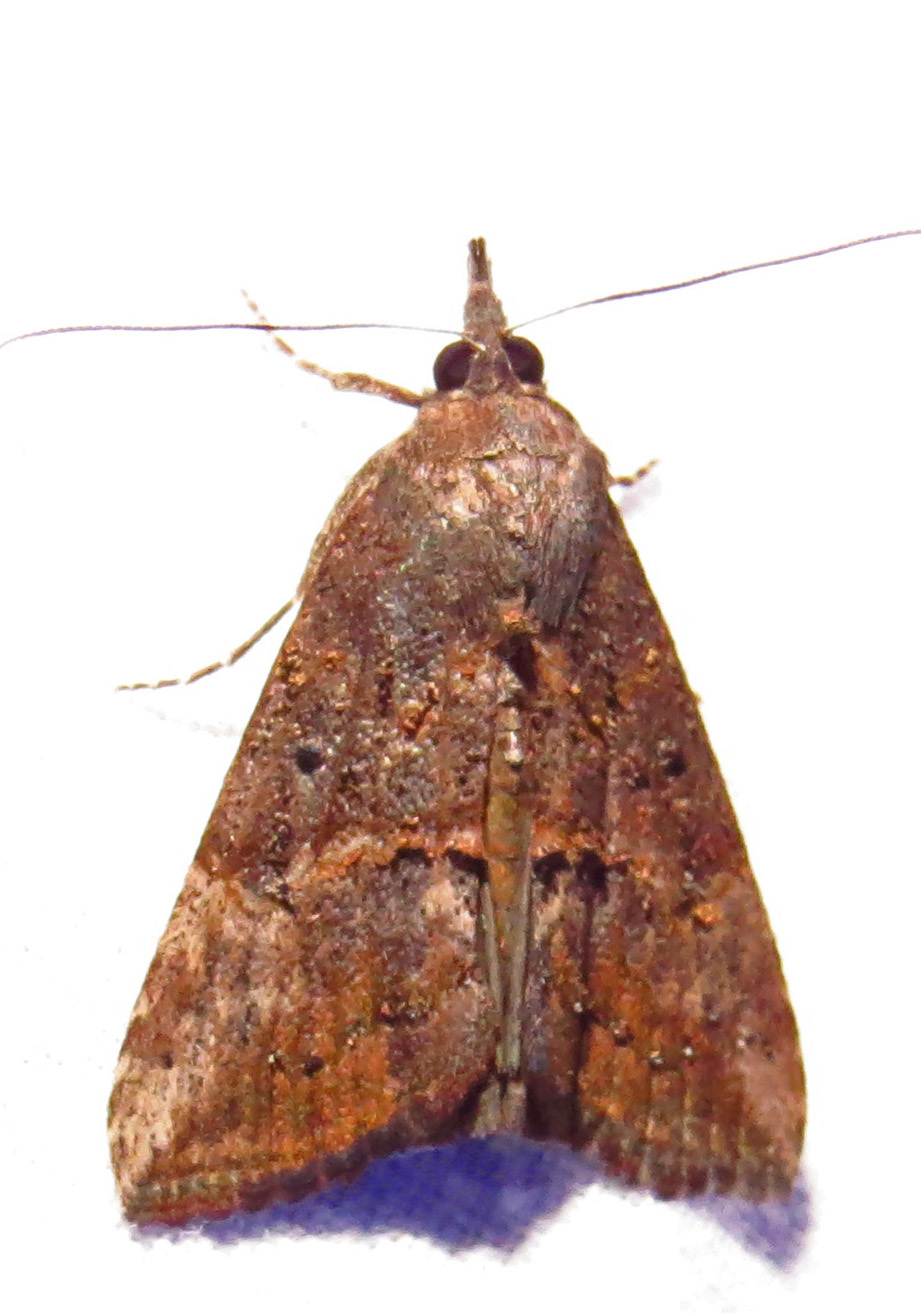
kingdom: Animalia
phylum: Arthropoda
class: Insecta
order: Lepidoptera
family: Erebidae
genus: Hypena
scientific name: Hypena scabra
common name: Green cloverworm
